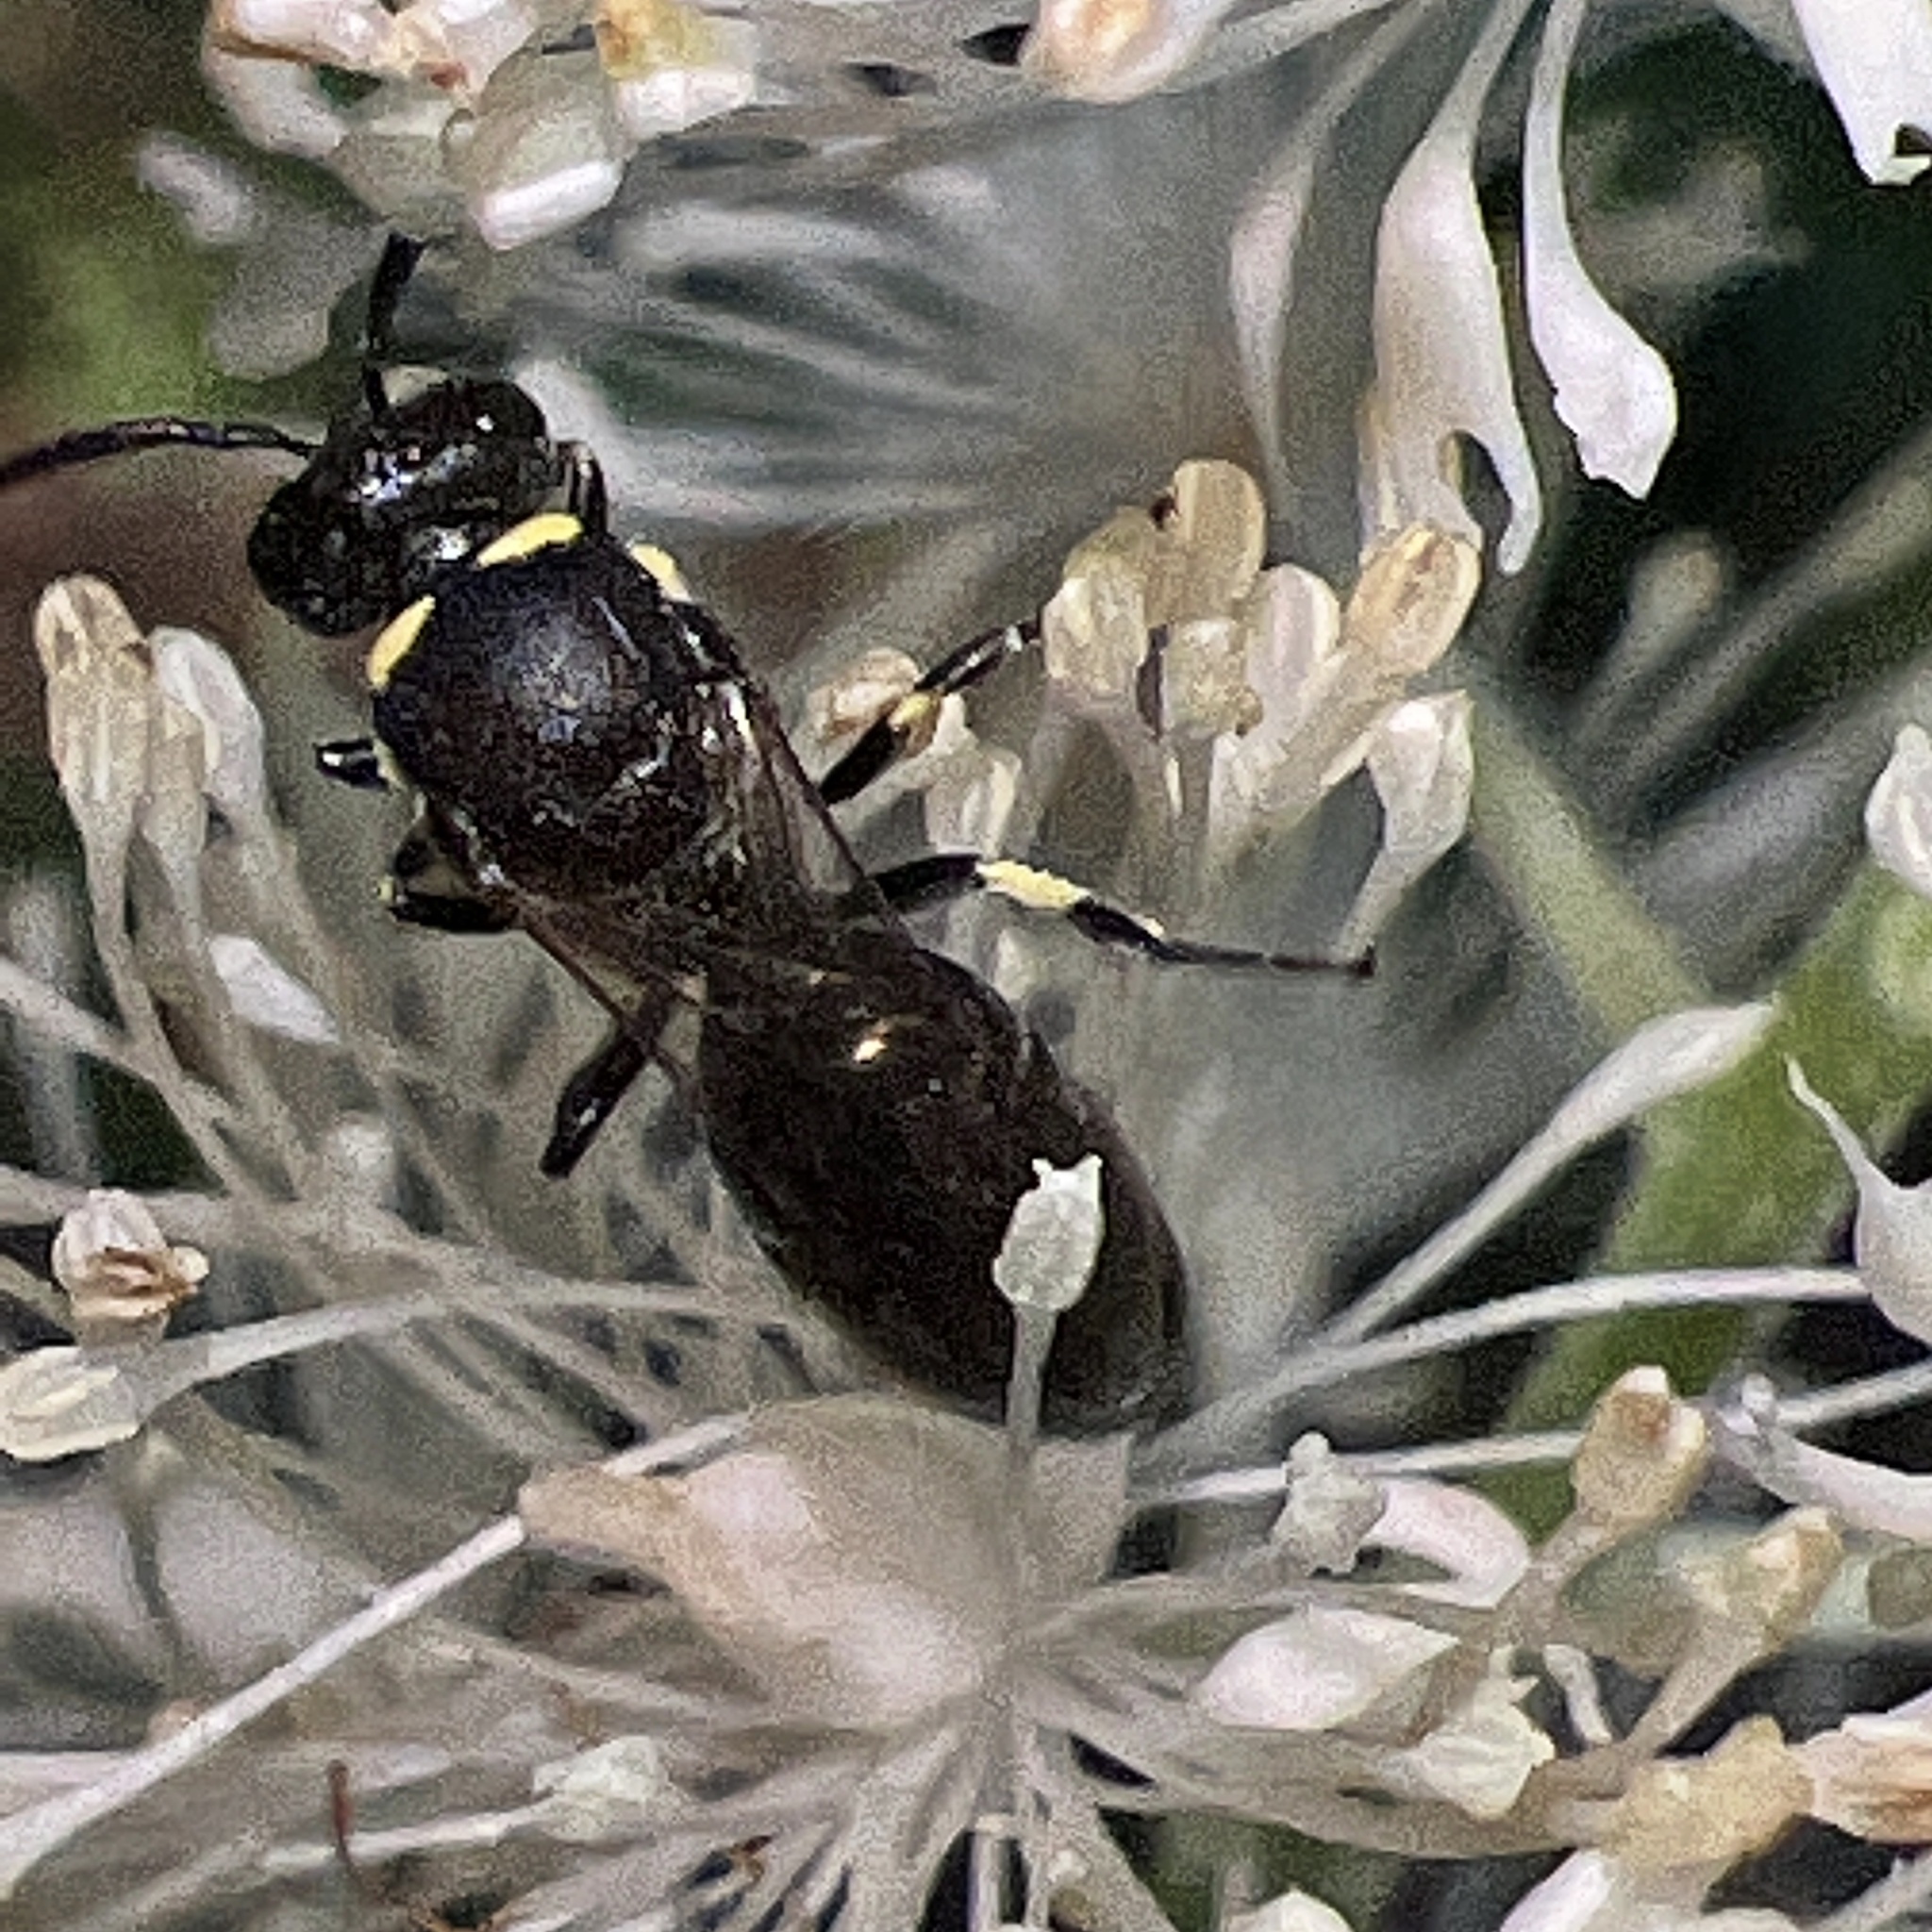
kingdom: Animalia
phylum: Arthropoda
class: Insecta
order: Hymenoptera
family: Colletidae
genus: Hylaeus
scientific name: Hylaeus modestus
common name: Yellow-faced bee
